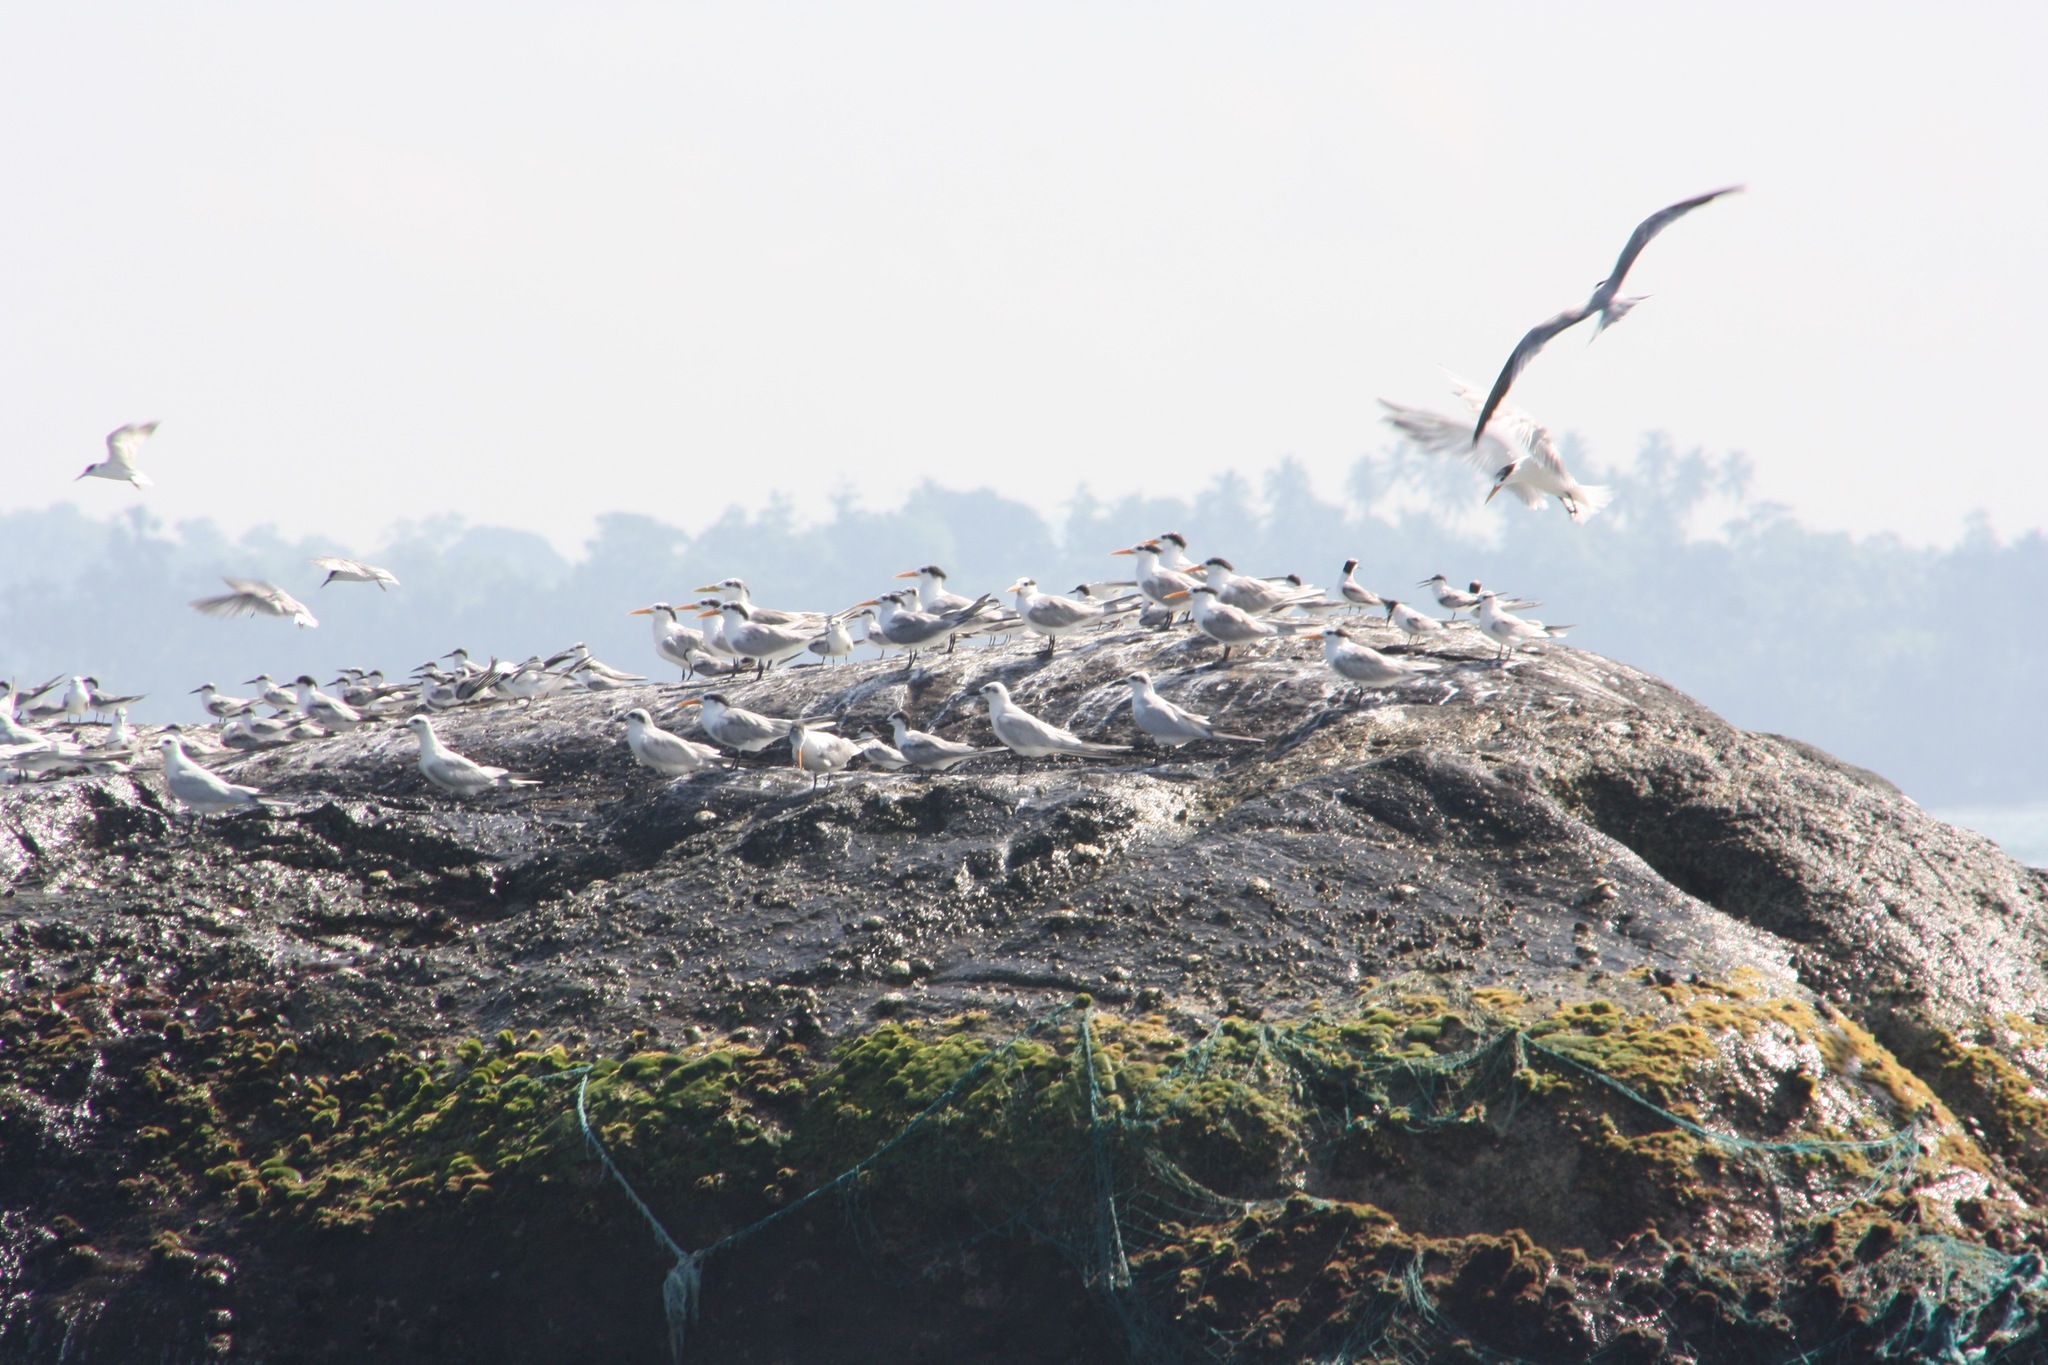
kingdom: Animalia
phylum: Chordata
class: Aves
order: Charadriiformes
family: Laridae
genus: Thalasseus
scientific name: Thalasseus bengalensis
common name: Lesser crested tern
